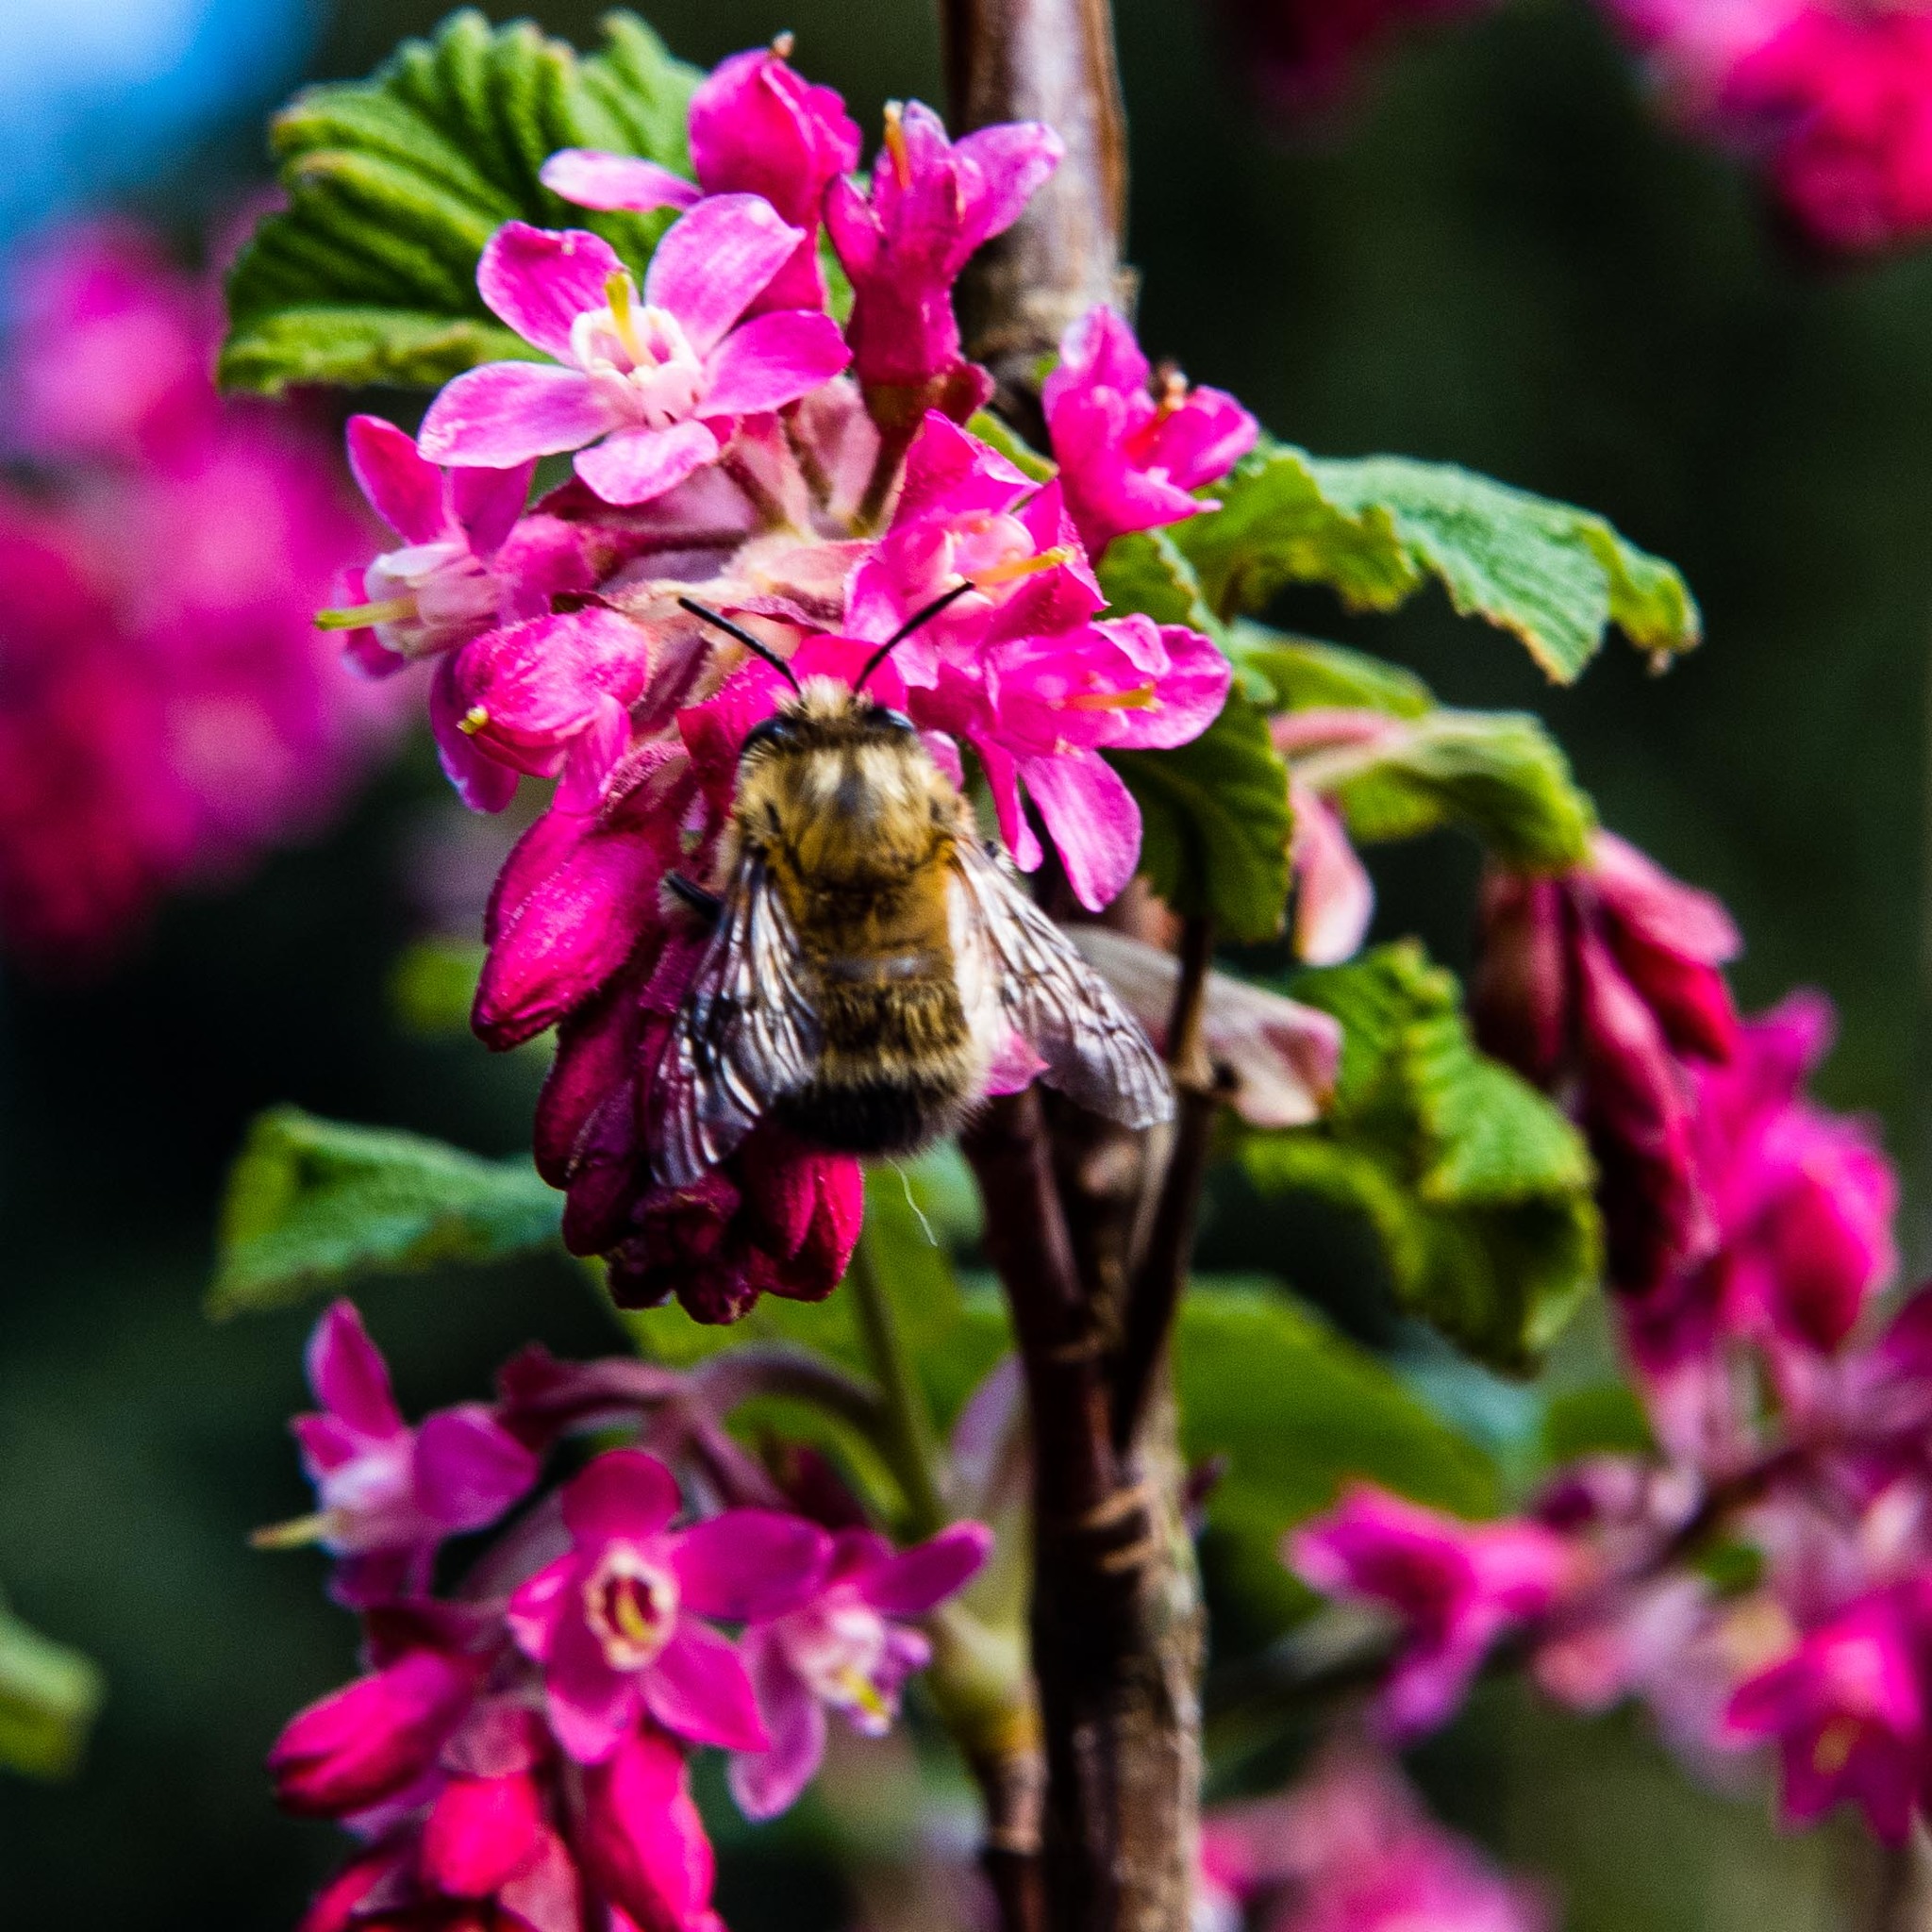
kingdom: Animalia
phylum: Arthropoda
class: Insecta
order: Hymenoptera
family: Apidae
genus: Anthophora
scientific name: Anthophora plumipes
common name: Hairy-footed flower bee
